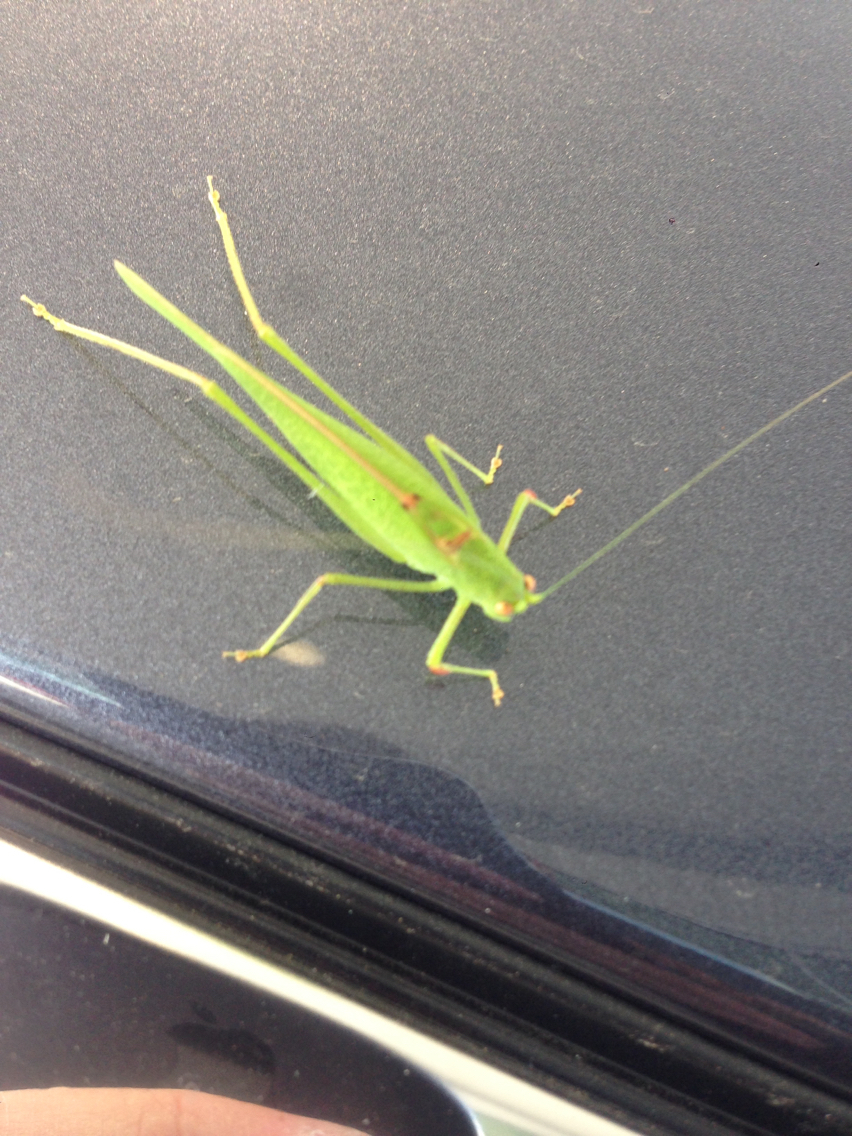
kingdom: Animalia
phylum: Arthropoda
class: Insecta
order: Orthoptera
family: Tettigoniidae
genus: Phaneroptera
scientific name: Phaneroptera nana
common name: Southern sickle bush-cricket
